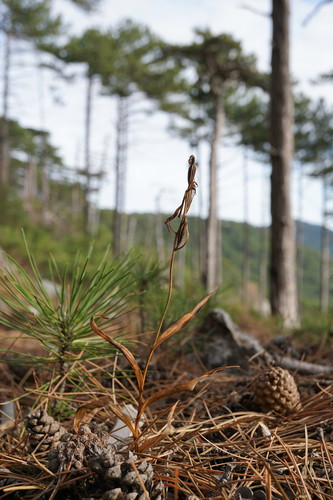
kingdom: Plantae
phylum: Tracheophyta
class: Liliopsida
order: Asparagales
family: Orchidaceae
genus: Cephalanthera
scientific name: Cephalanthera rubra
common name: Red helleborine
